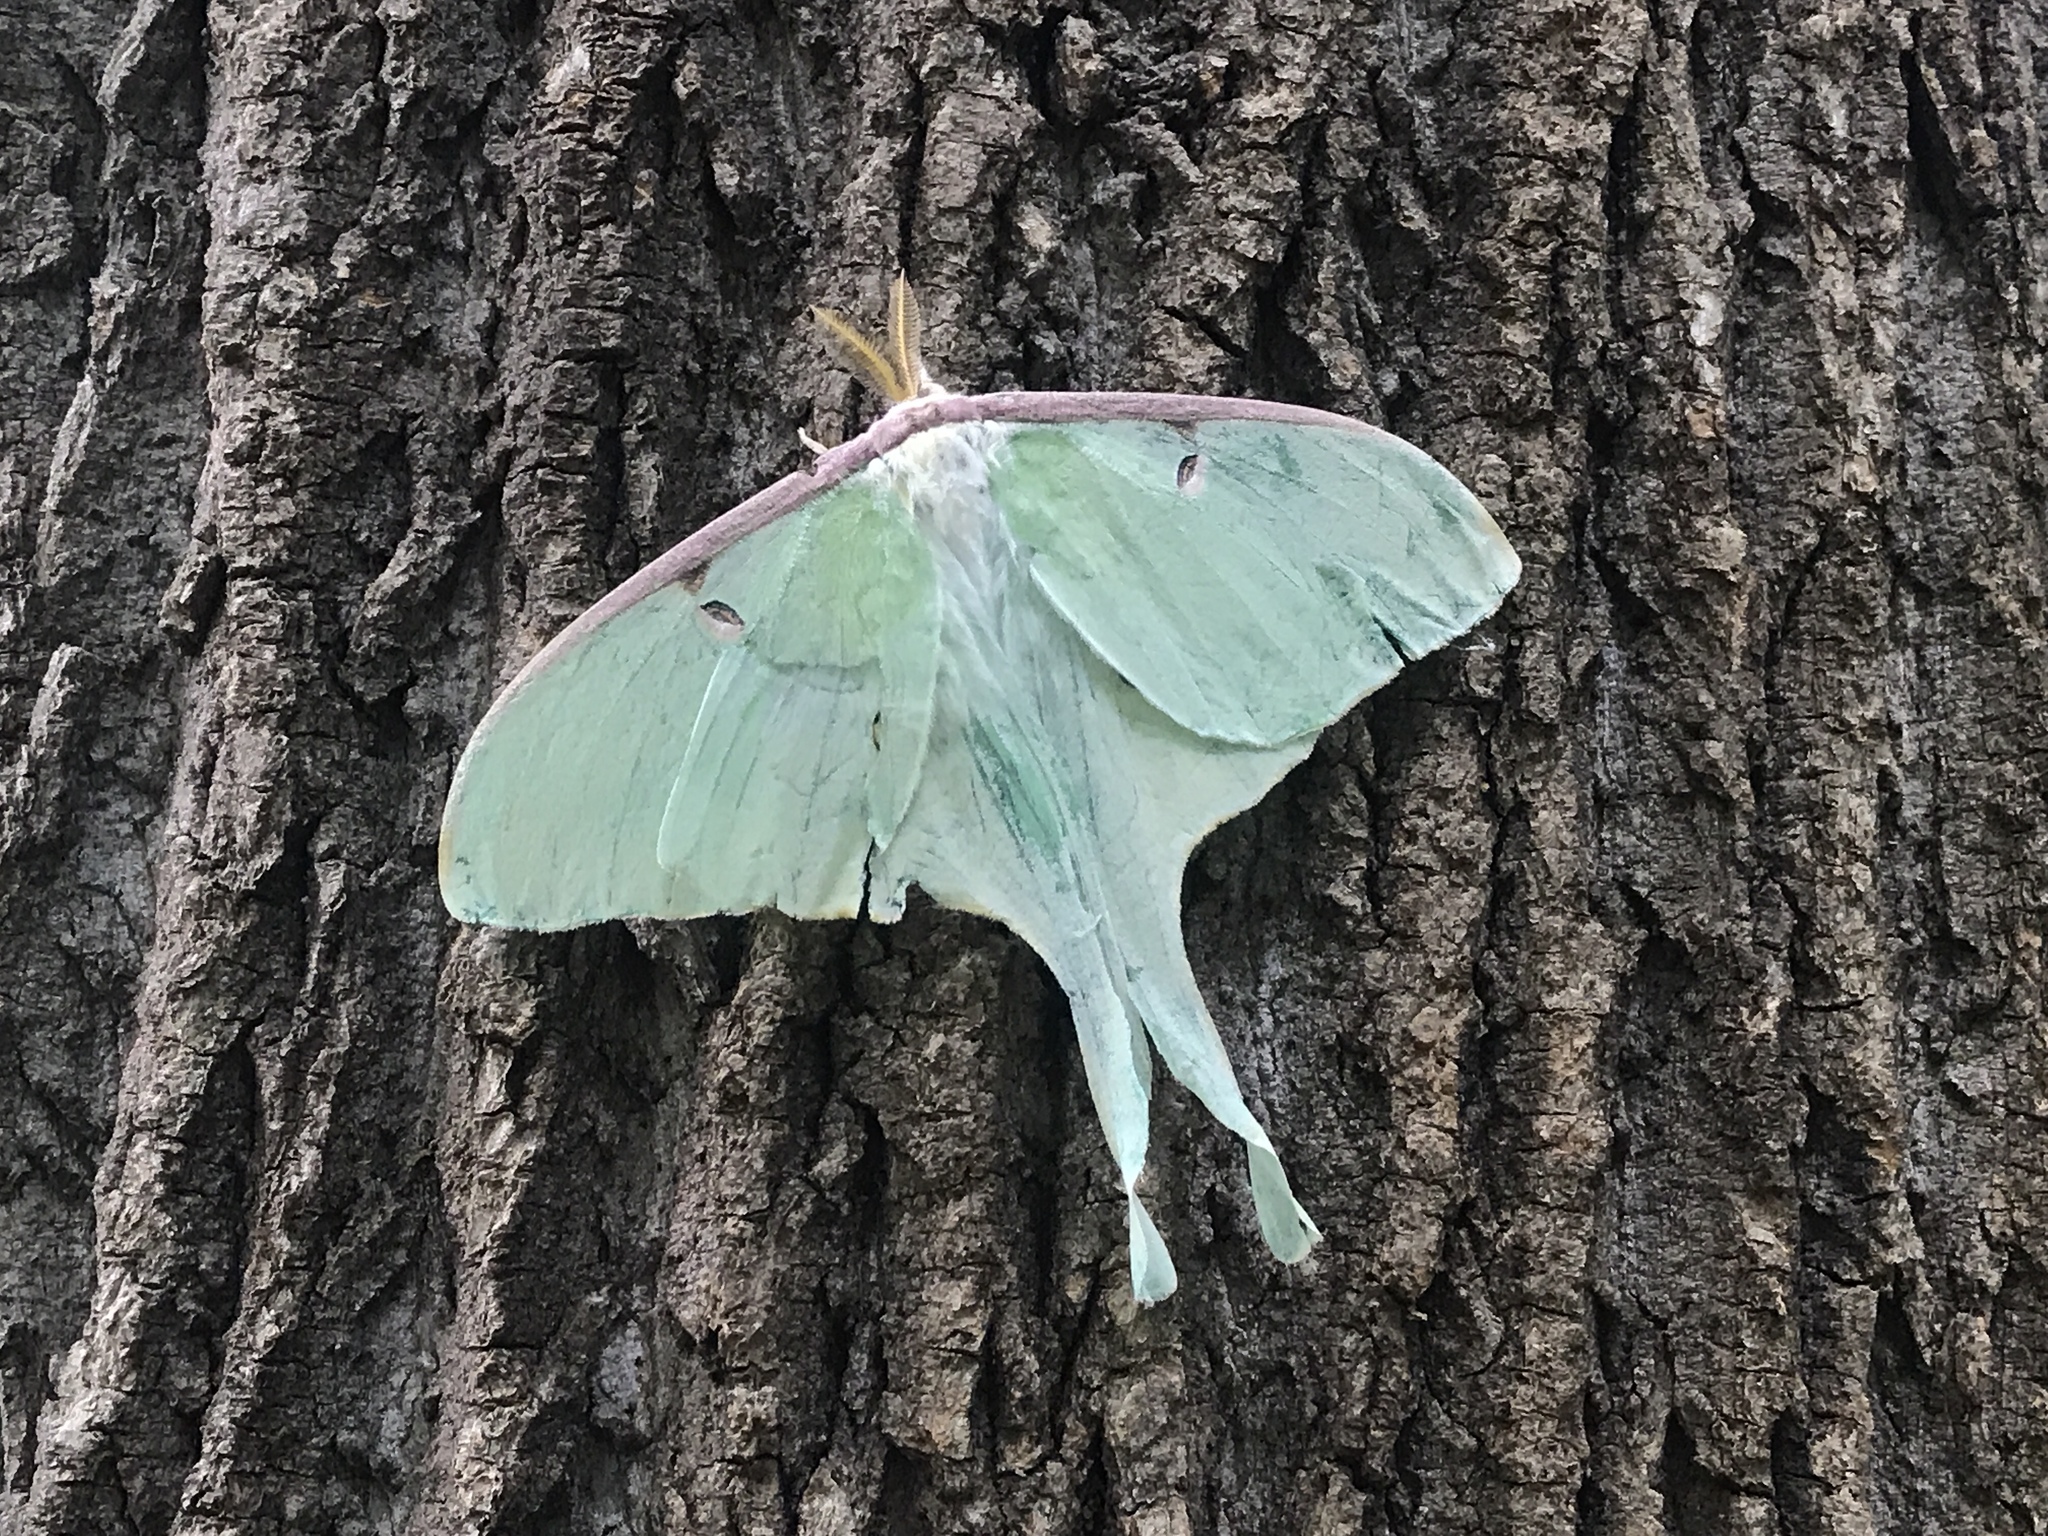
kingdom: Animalia
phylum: Arthropoda
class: Insecta
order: Lepidoptera
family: Saturniidae
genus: Actias
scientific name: Actias luna
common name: Luna moth
